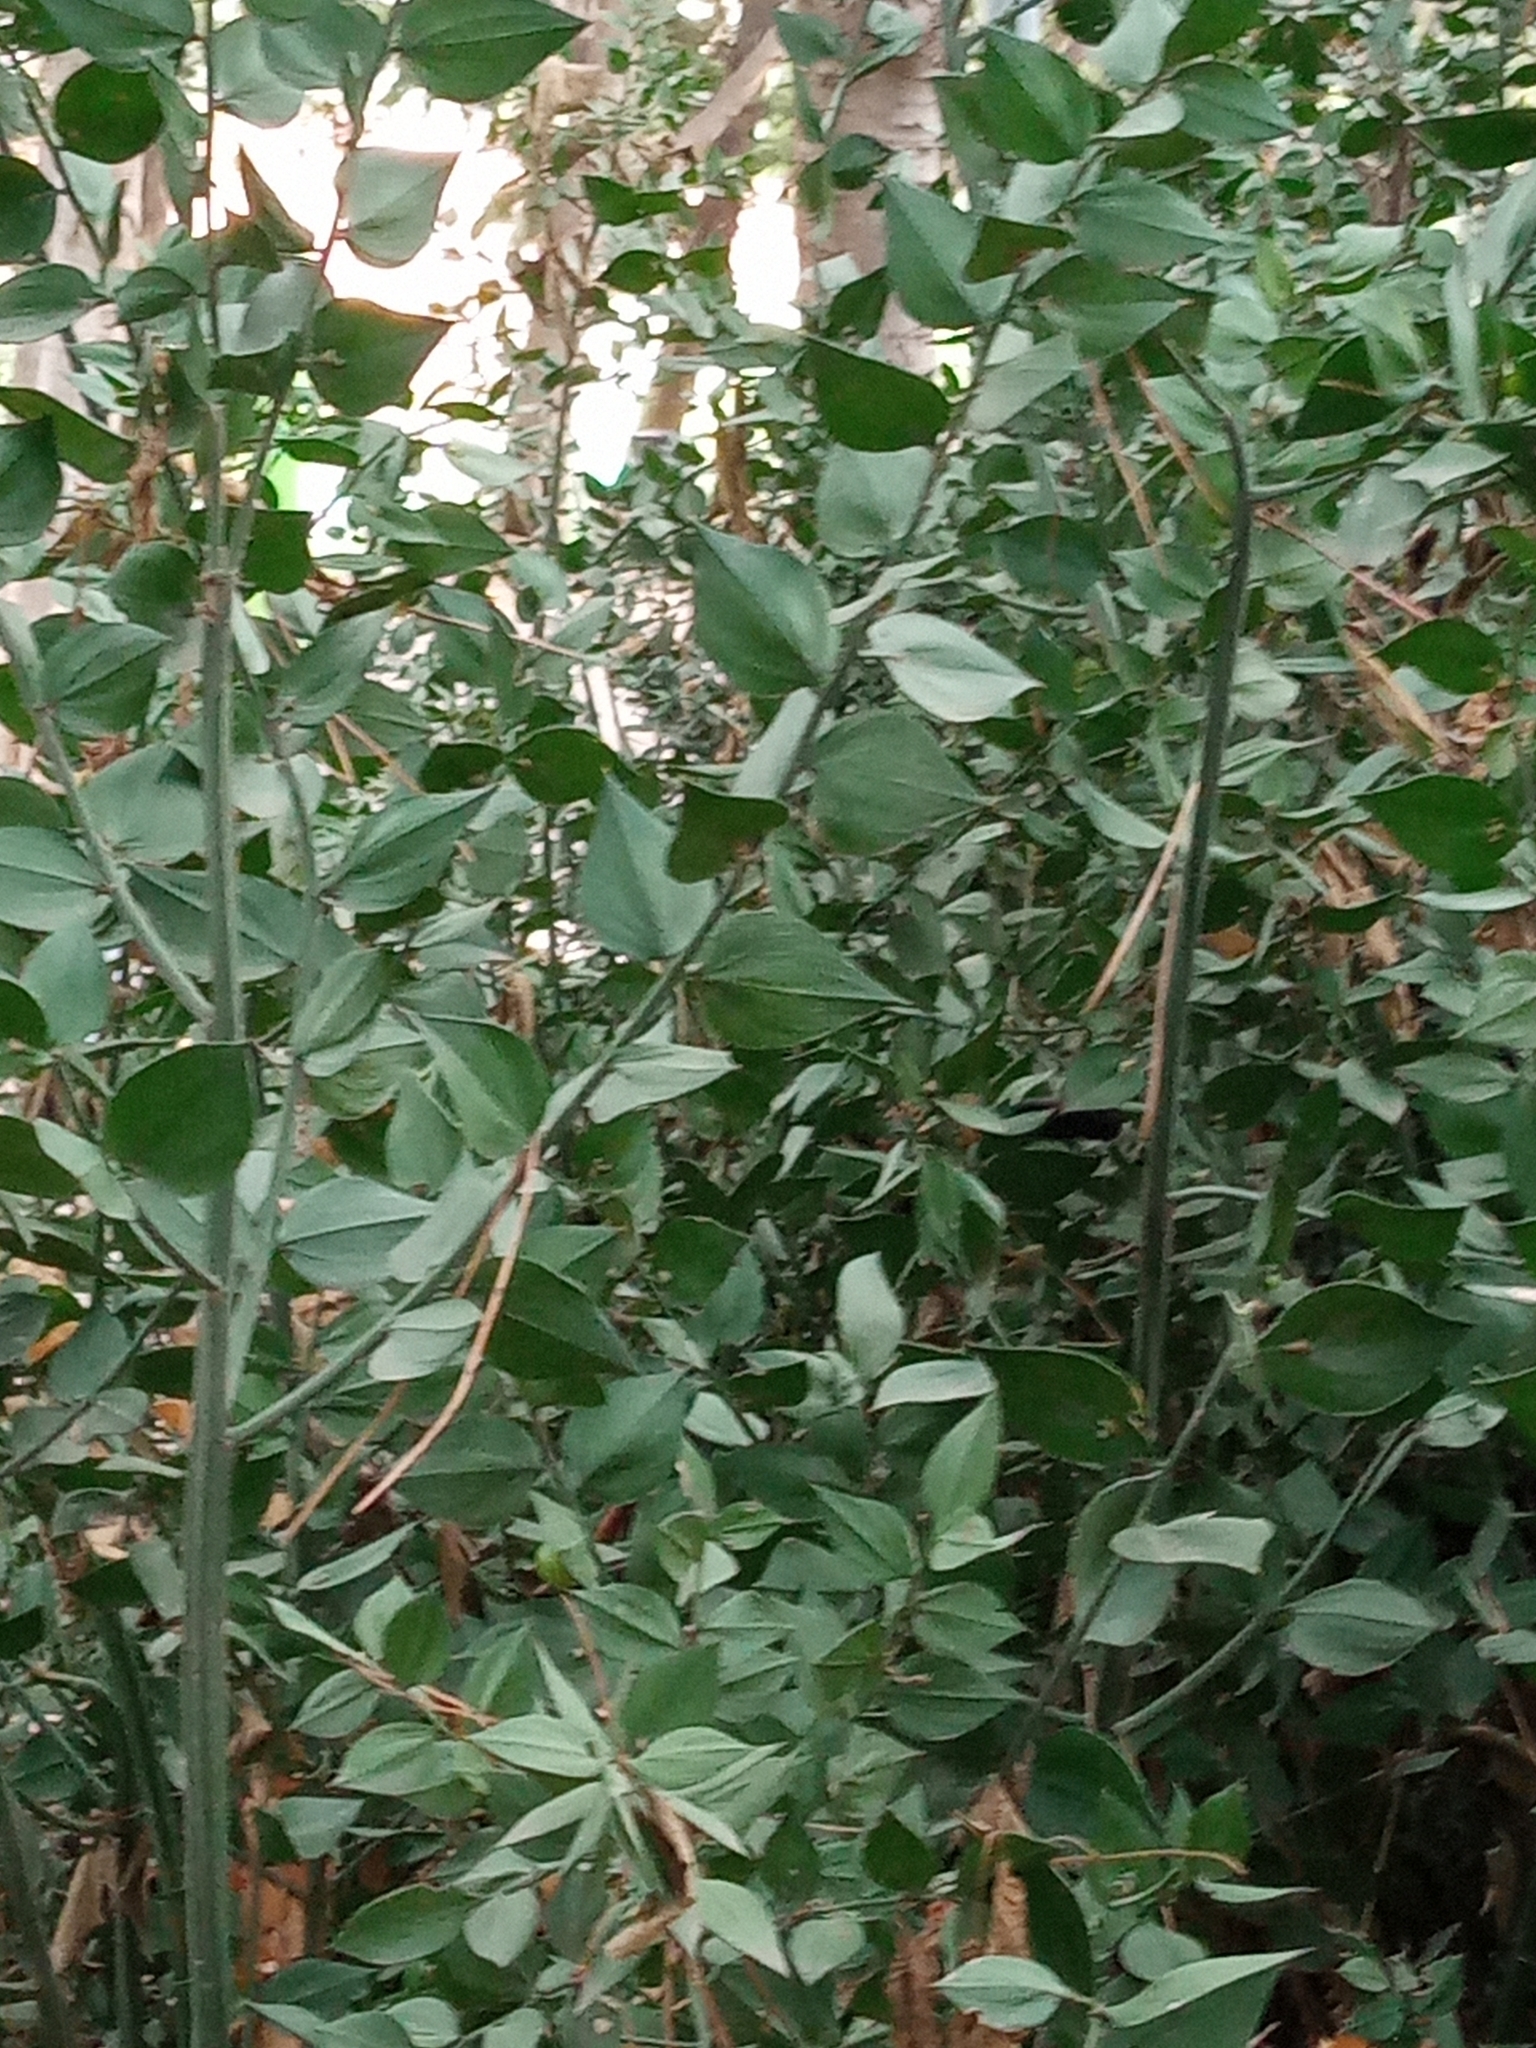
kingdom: Plantae
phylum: Tracheophyta
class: Liliopsida
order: Asparagales
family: Asparagaceae
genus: Ruscus
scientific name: Ruscus aculeatus
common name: Butcher's-broom
